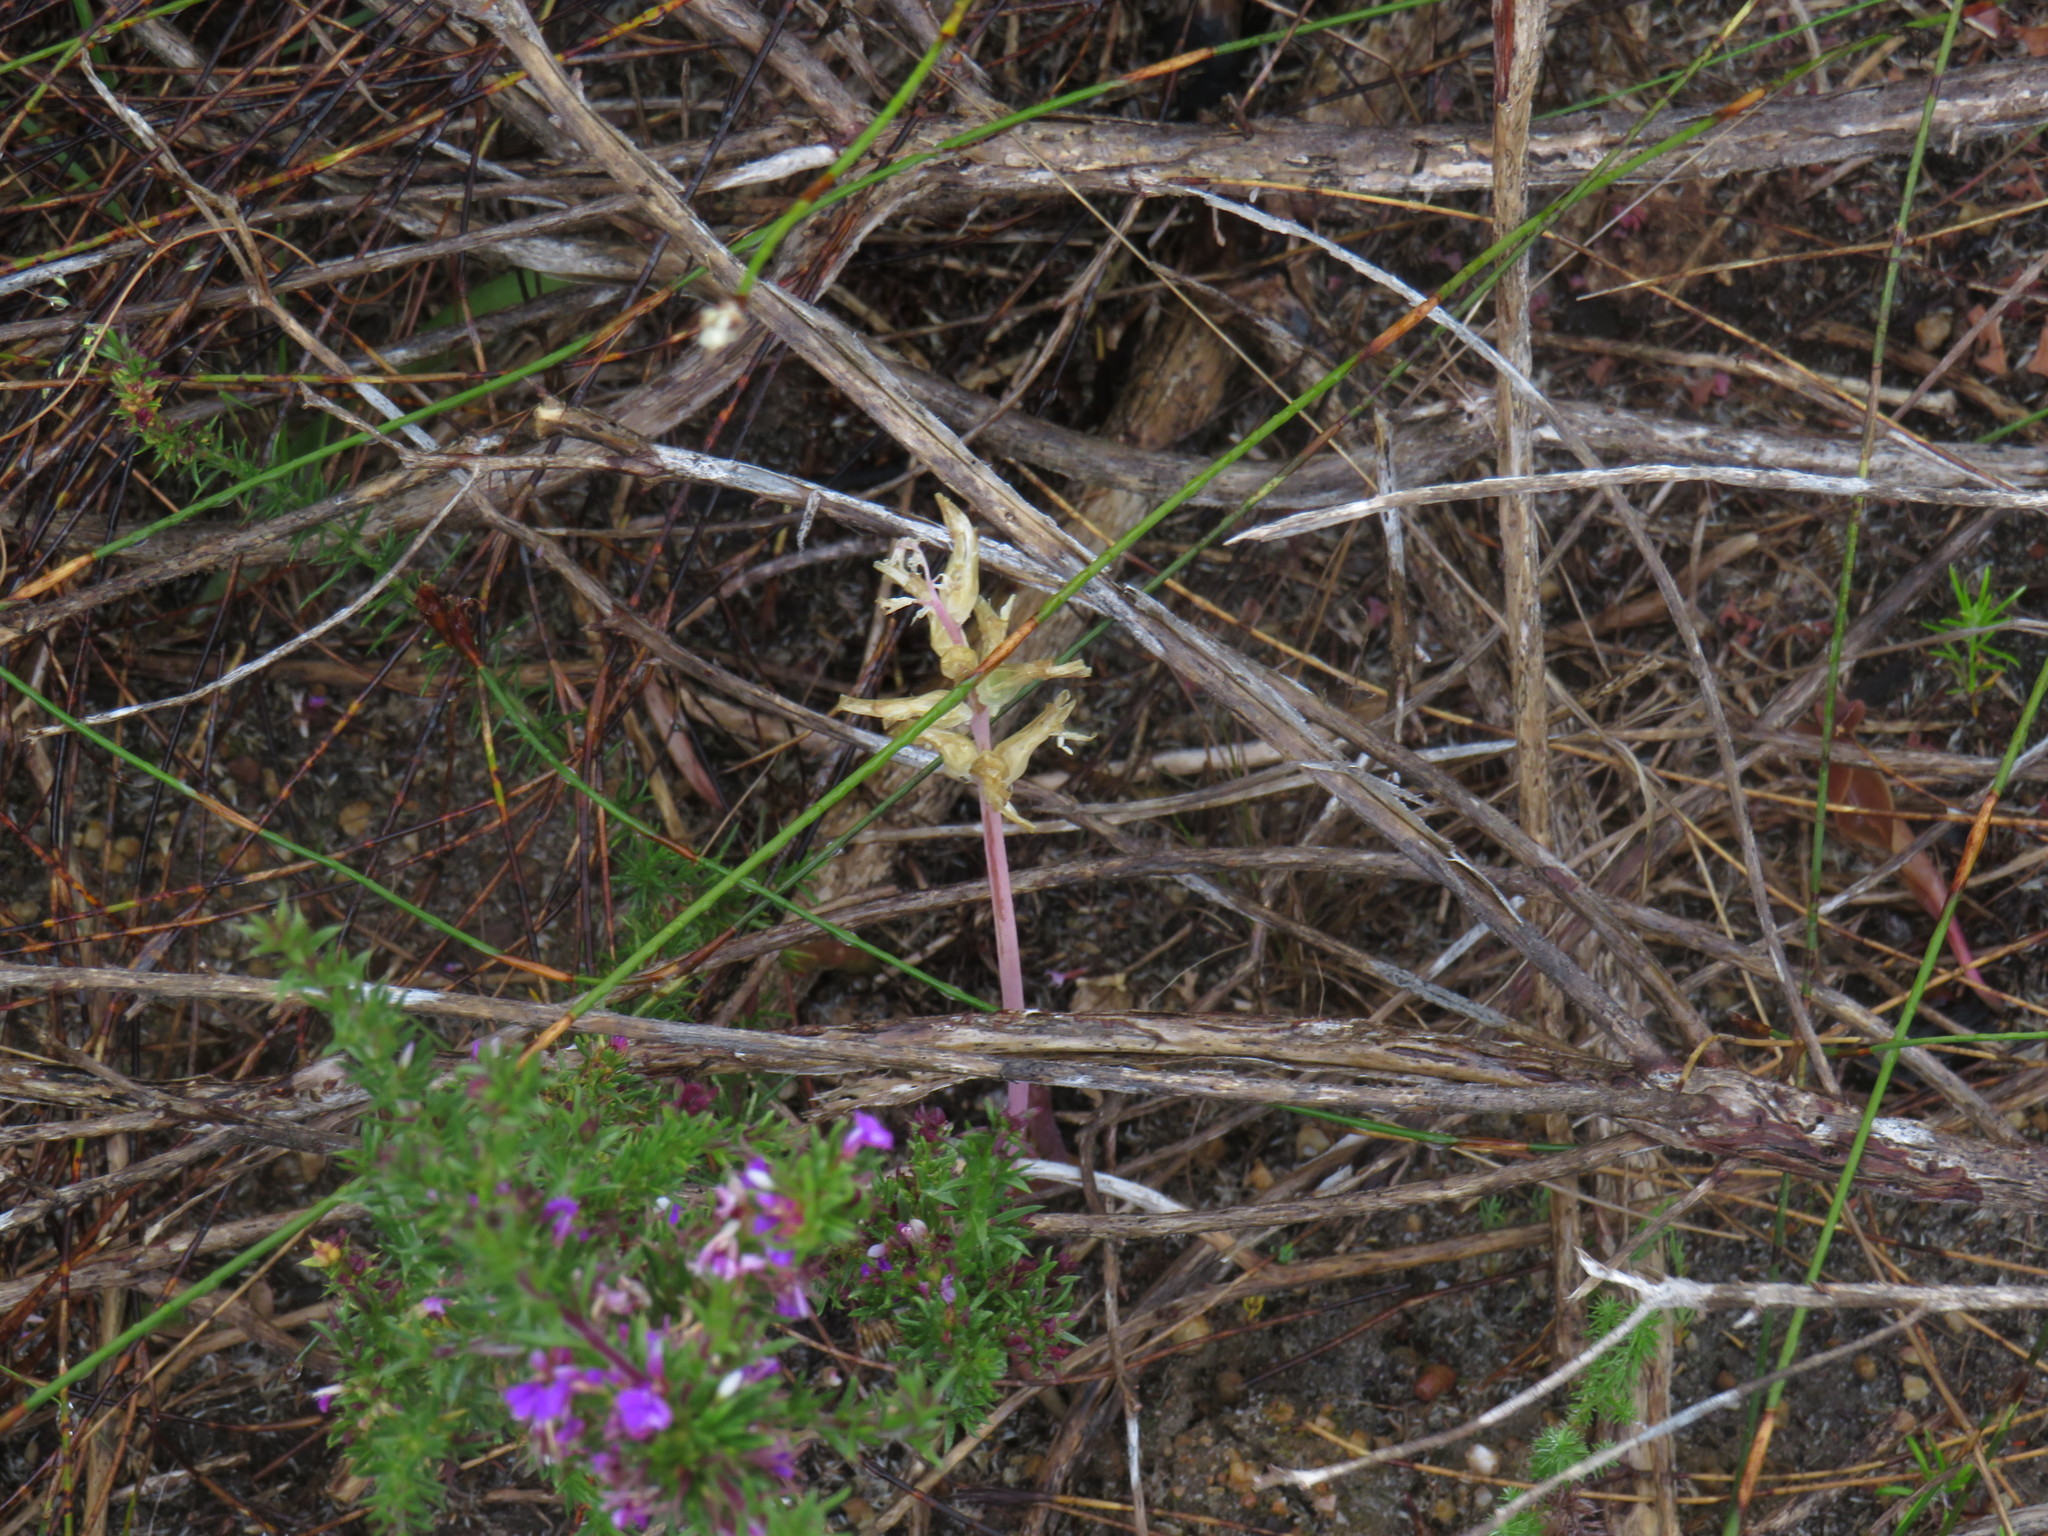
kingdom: Plantae
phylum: Tracheophyta
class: Liliopsida
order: Asparagales
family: Asparagaceae
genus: Lachenalia
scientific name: Lachenalia orchioides
